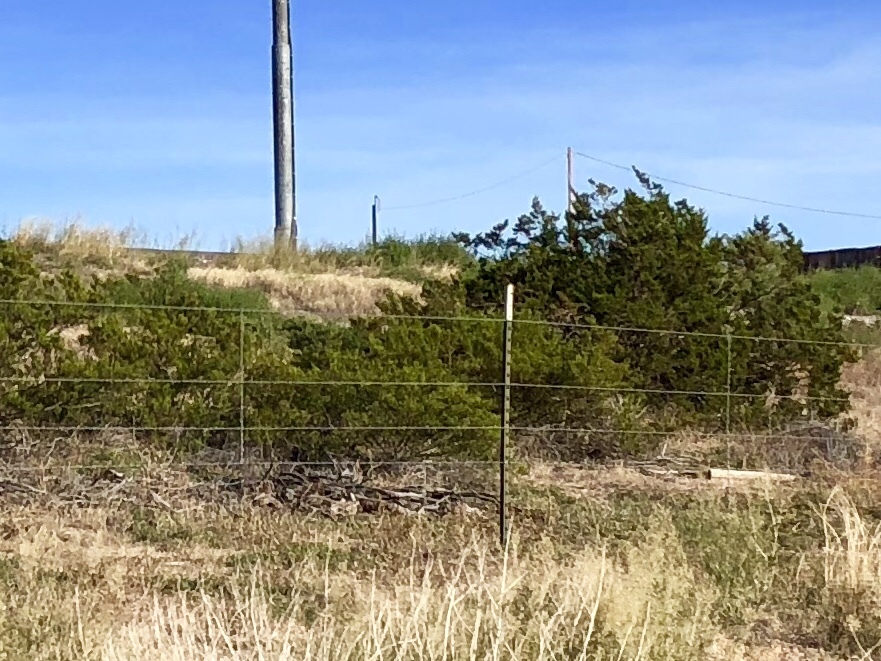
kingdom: Plantae
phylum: Tracheophyta
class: Magnoliopsida
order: Zygophyllales
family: Zygophyllaceae
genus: Larrea
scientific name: Larrea tridentata
